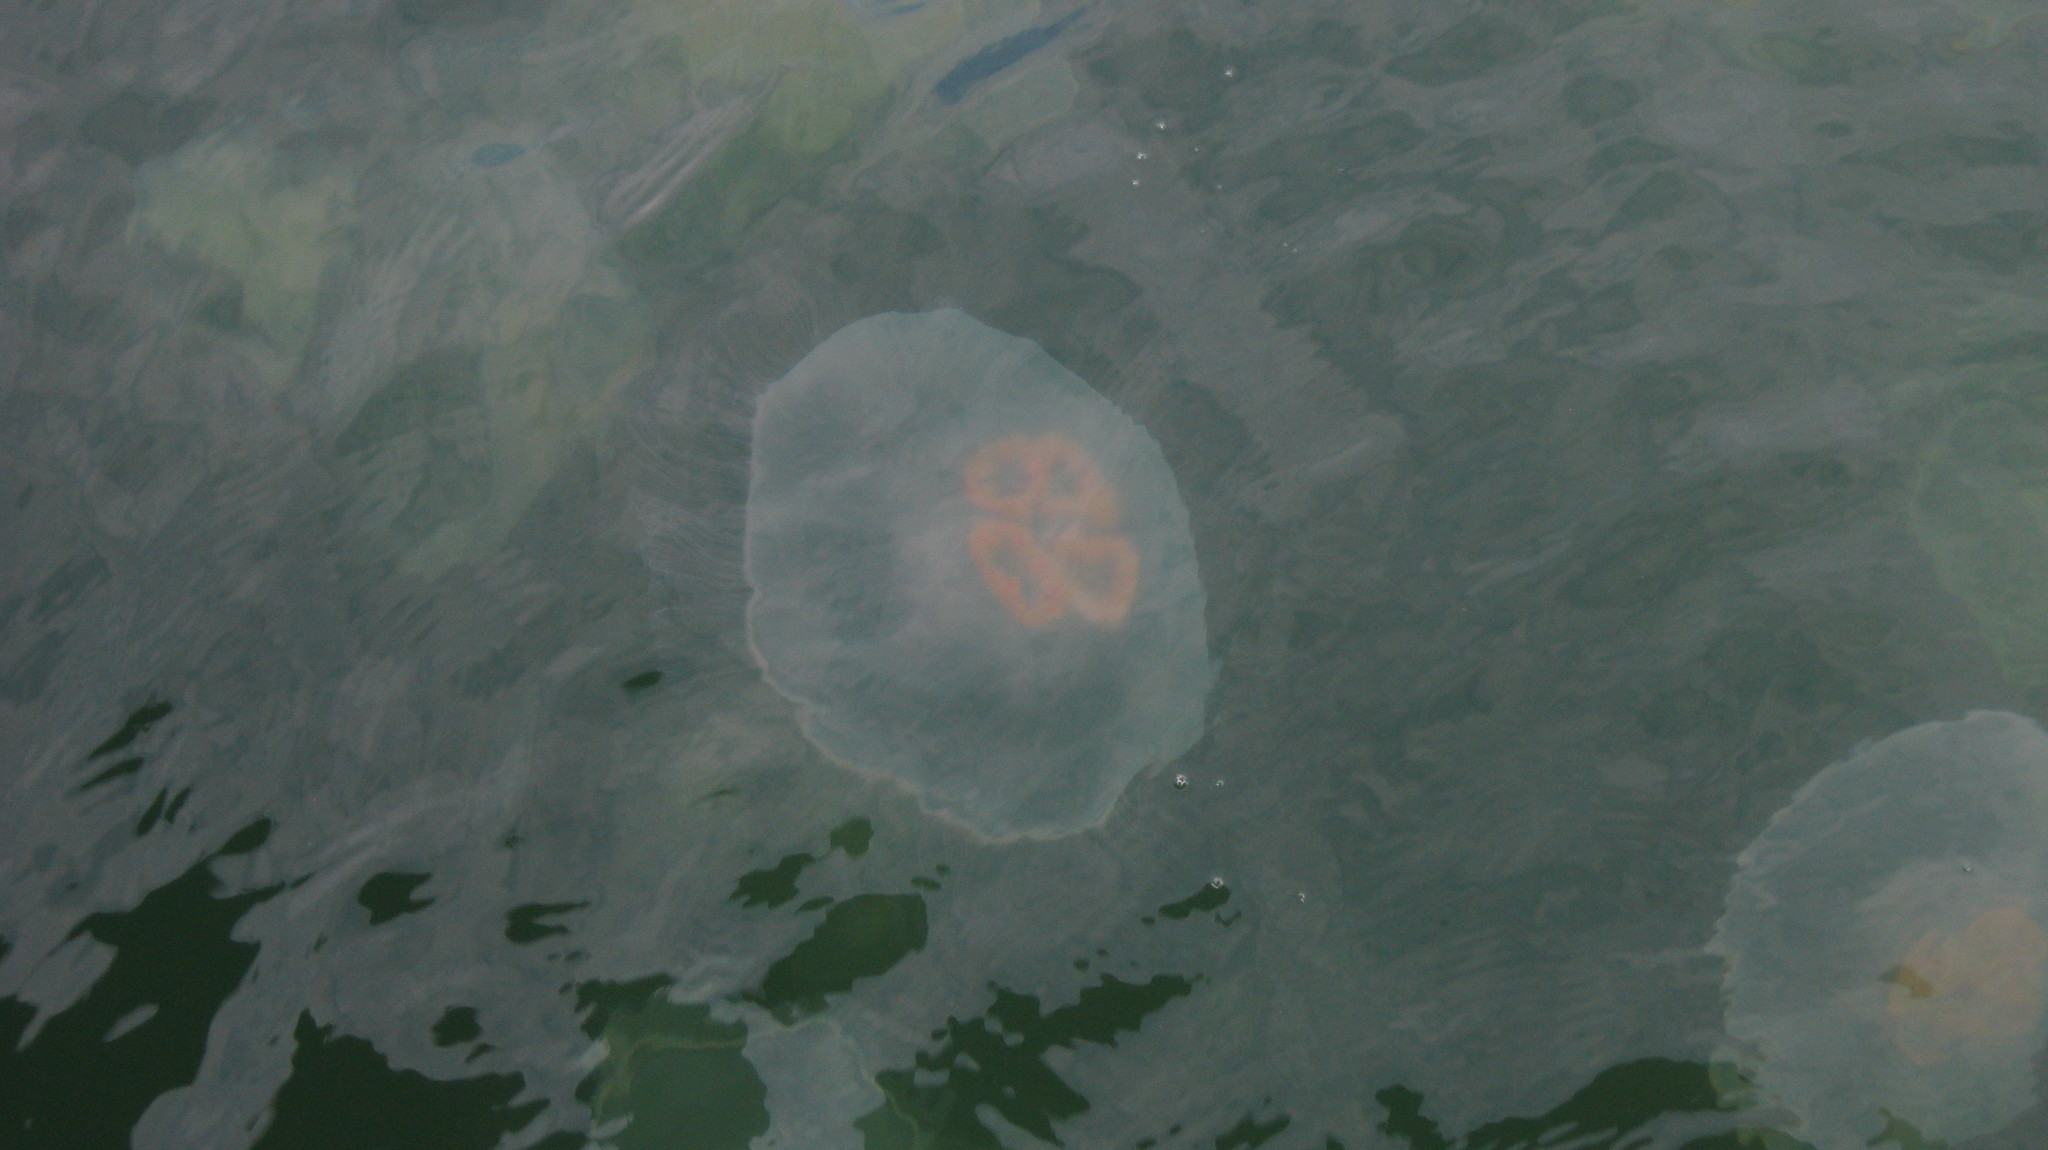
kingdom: Animalia
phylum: Cnidaria
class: Scyphozoa
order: Semaeostomeae
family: Ulmaridae
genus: Aurelia
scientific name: Aurelia labiata
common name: Pacific moon jelly
